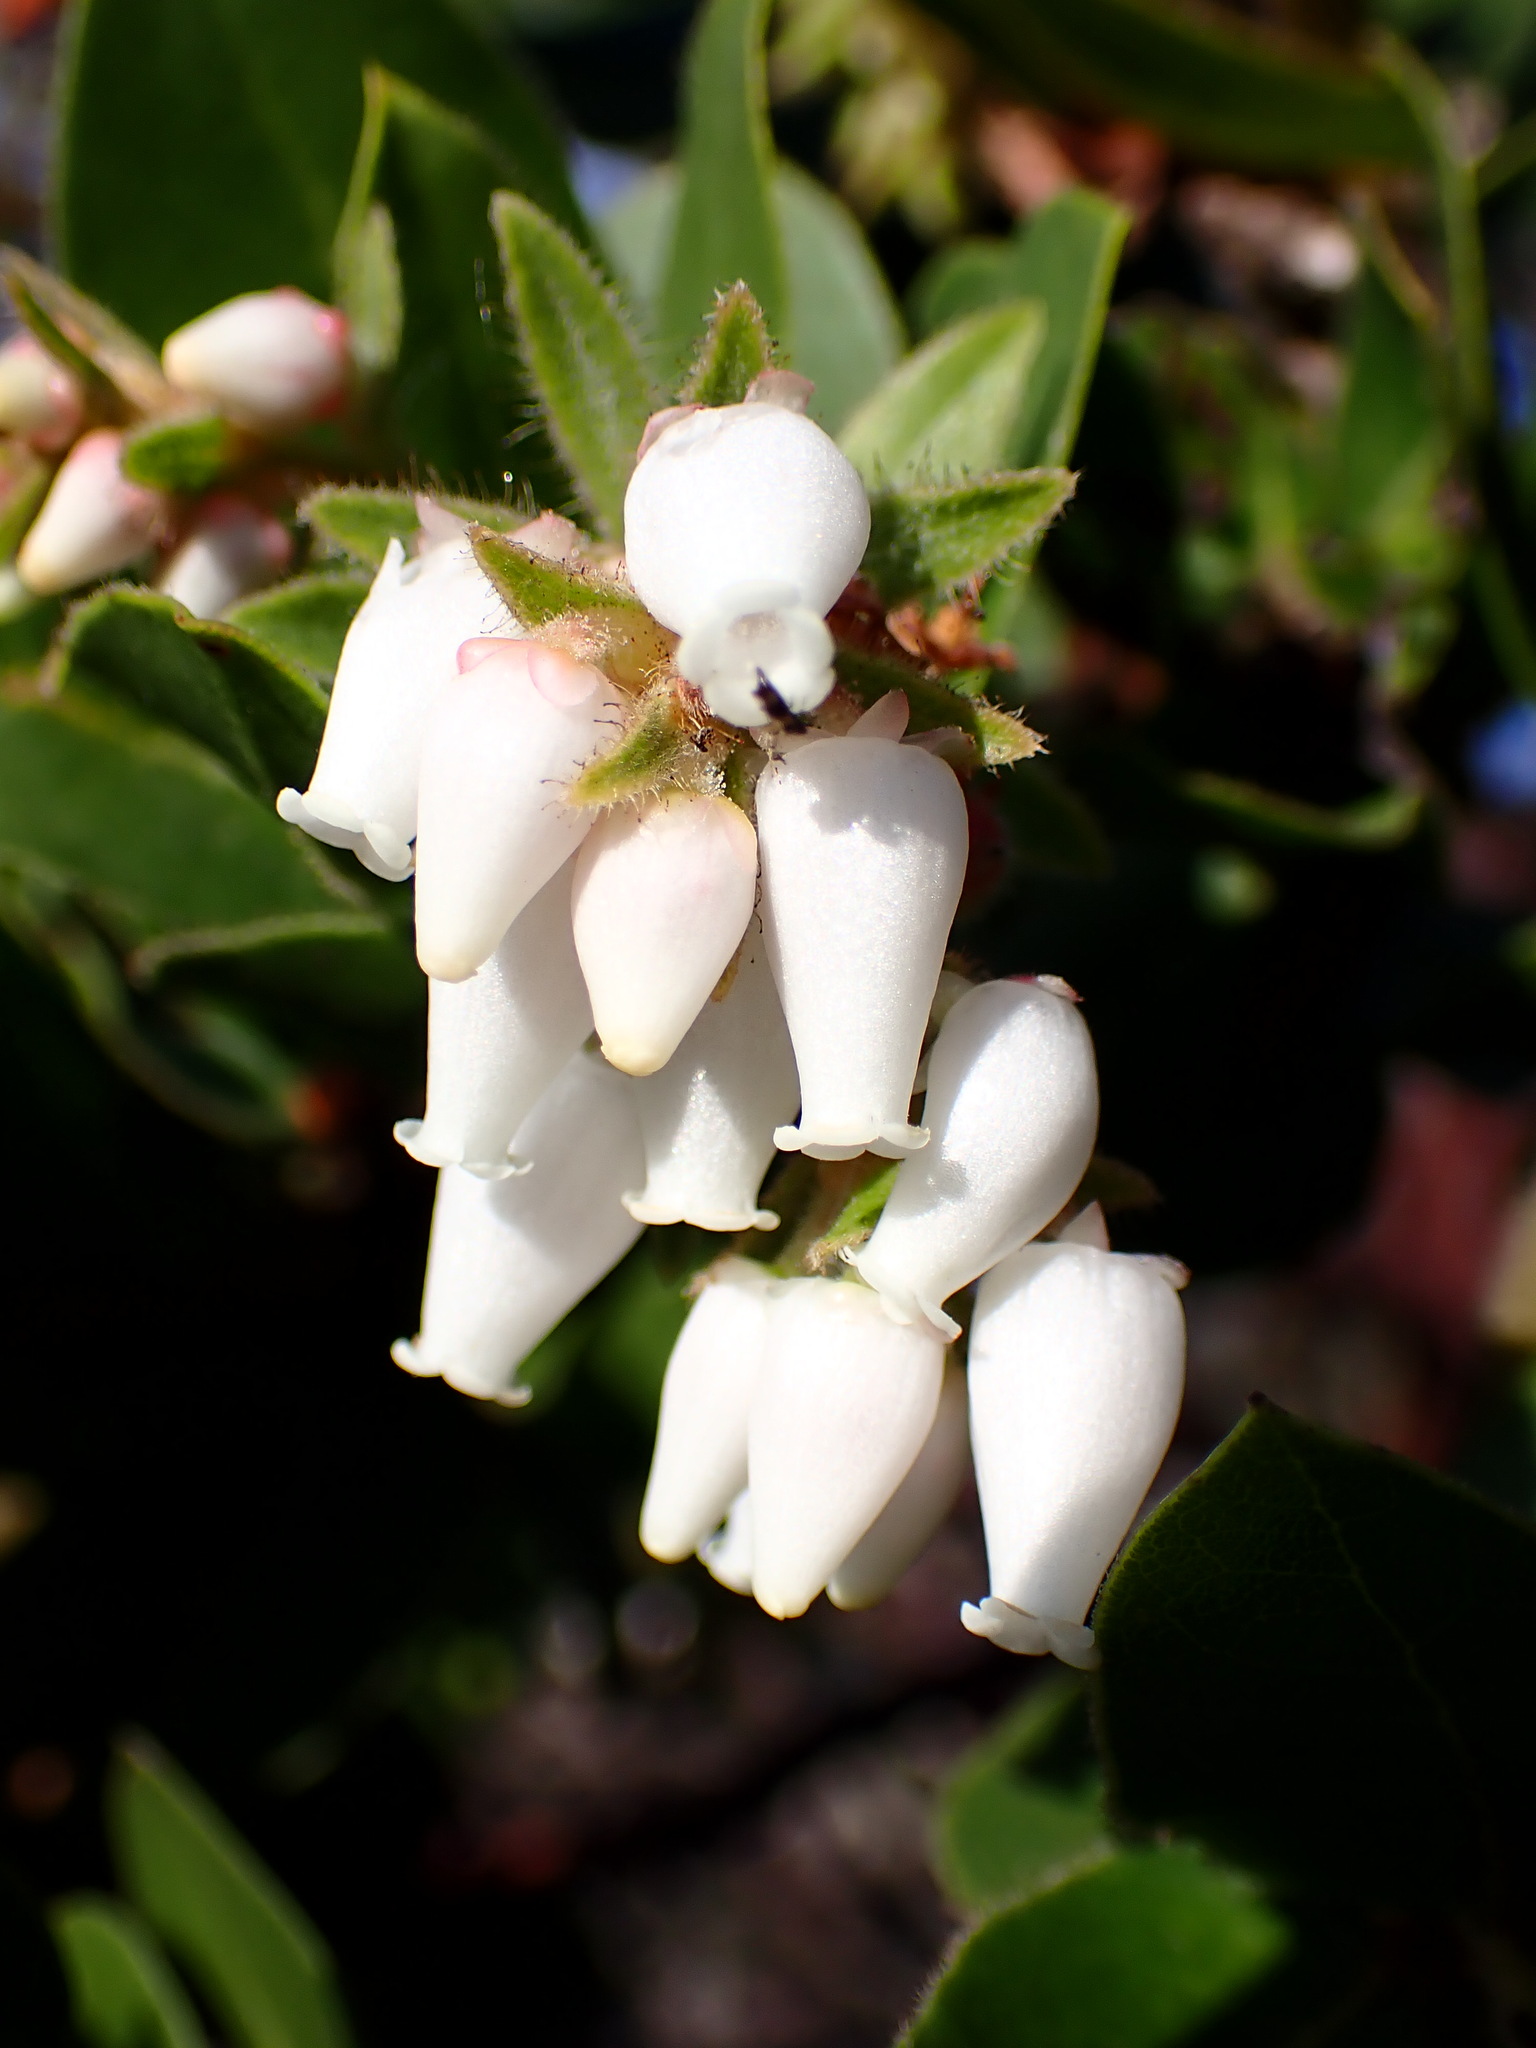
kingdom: Plantae
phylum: Tracheophyta
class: Magnoliopsida
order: Ericales
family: Ericaceae
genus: Arctostaphylos
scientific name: Arctostaphylos montaraensis
